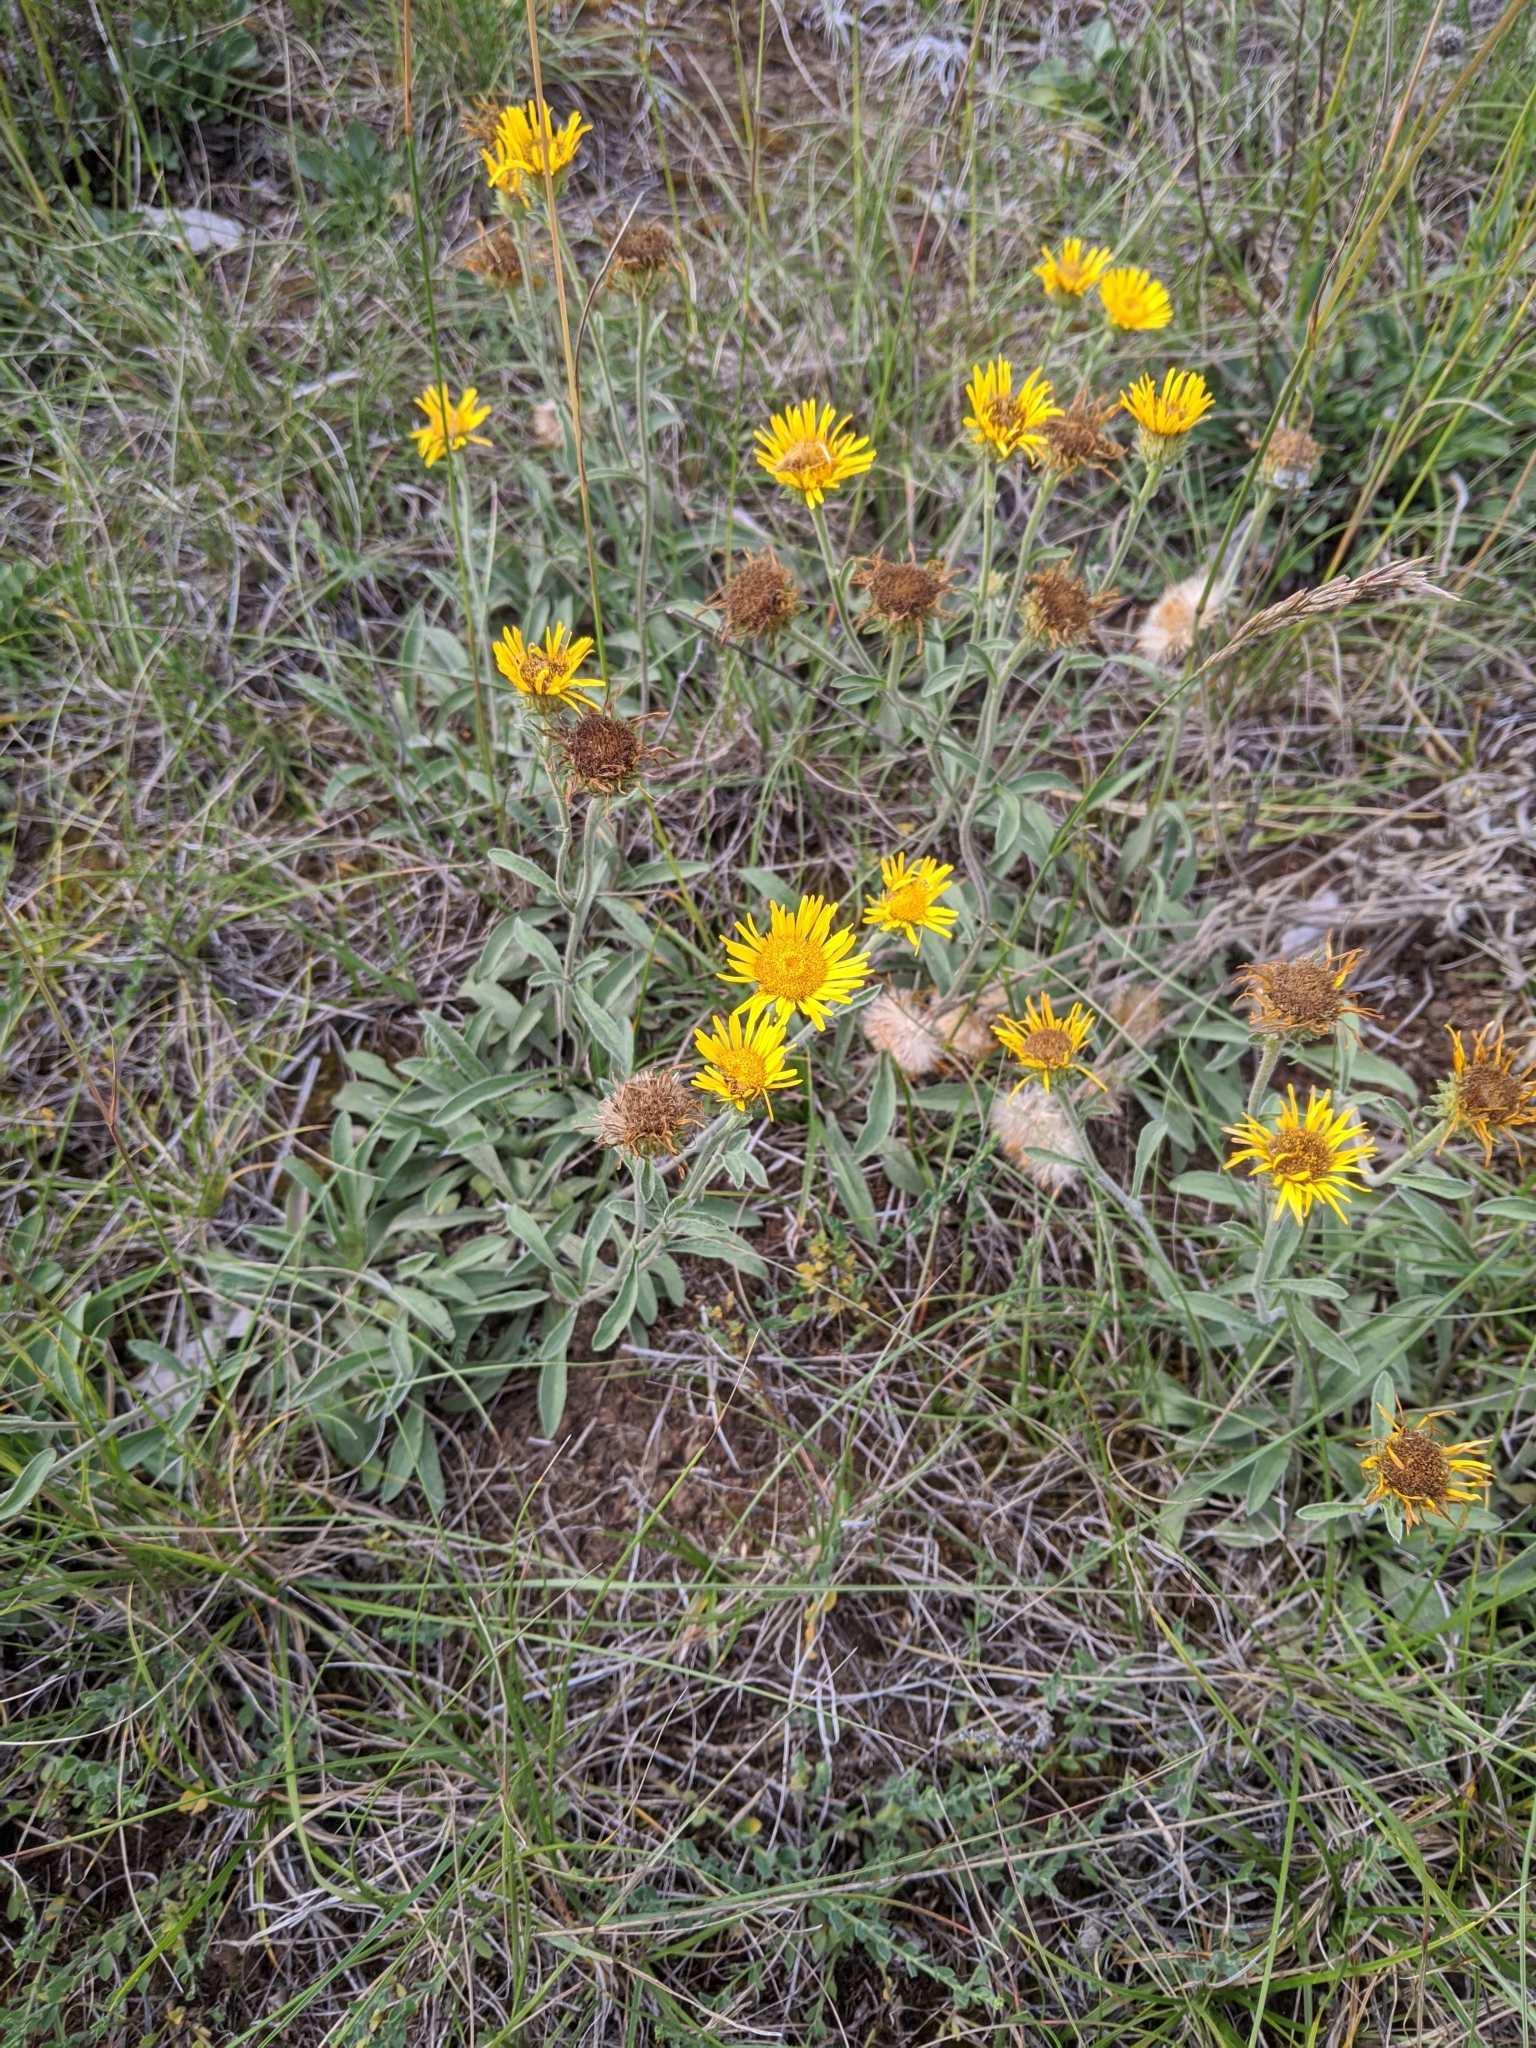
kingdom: Plantae
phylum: Tracheophyta
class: Magnoliopsida
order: Asterales
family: Asteraceae
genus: Pentanema
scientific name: Pentanema montanum
